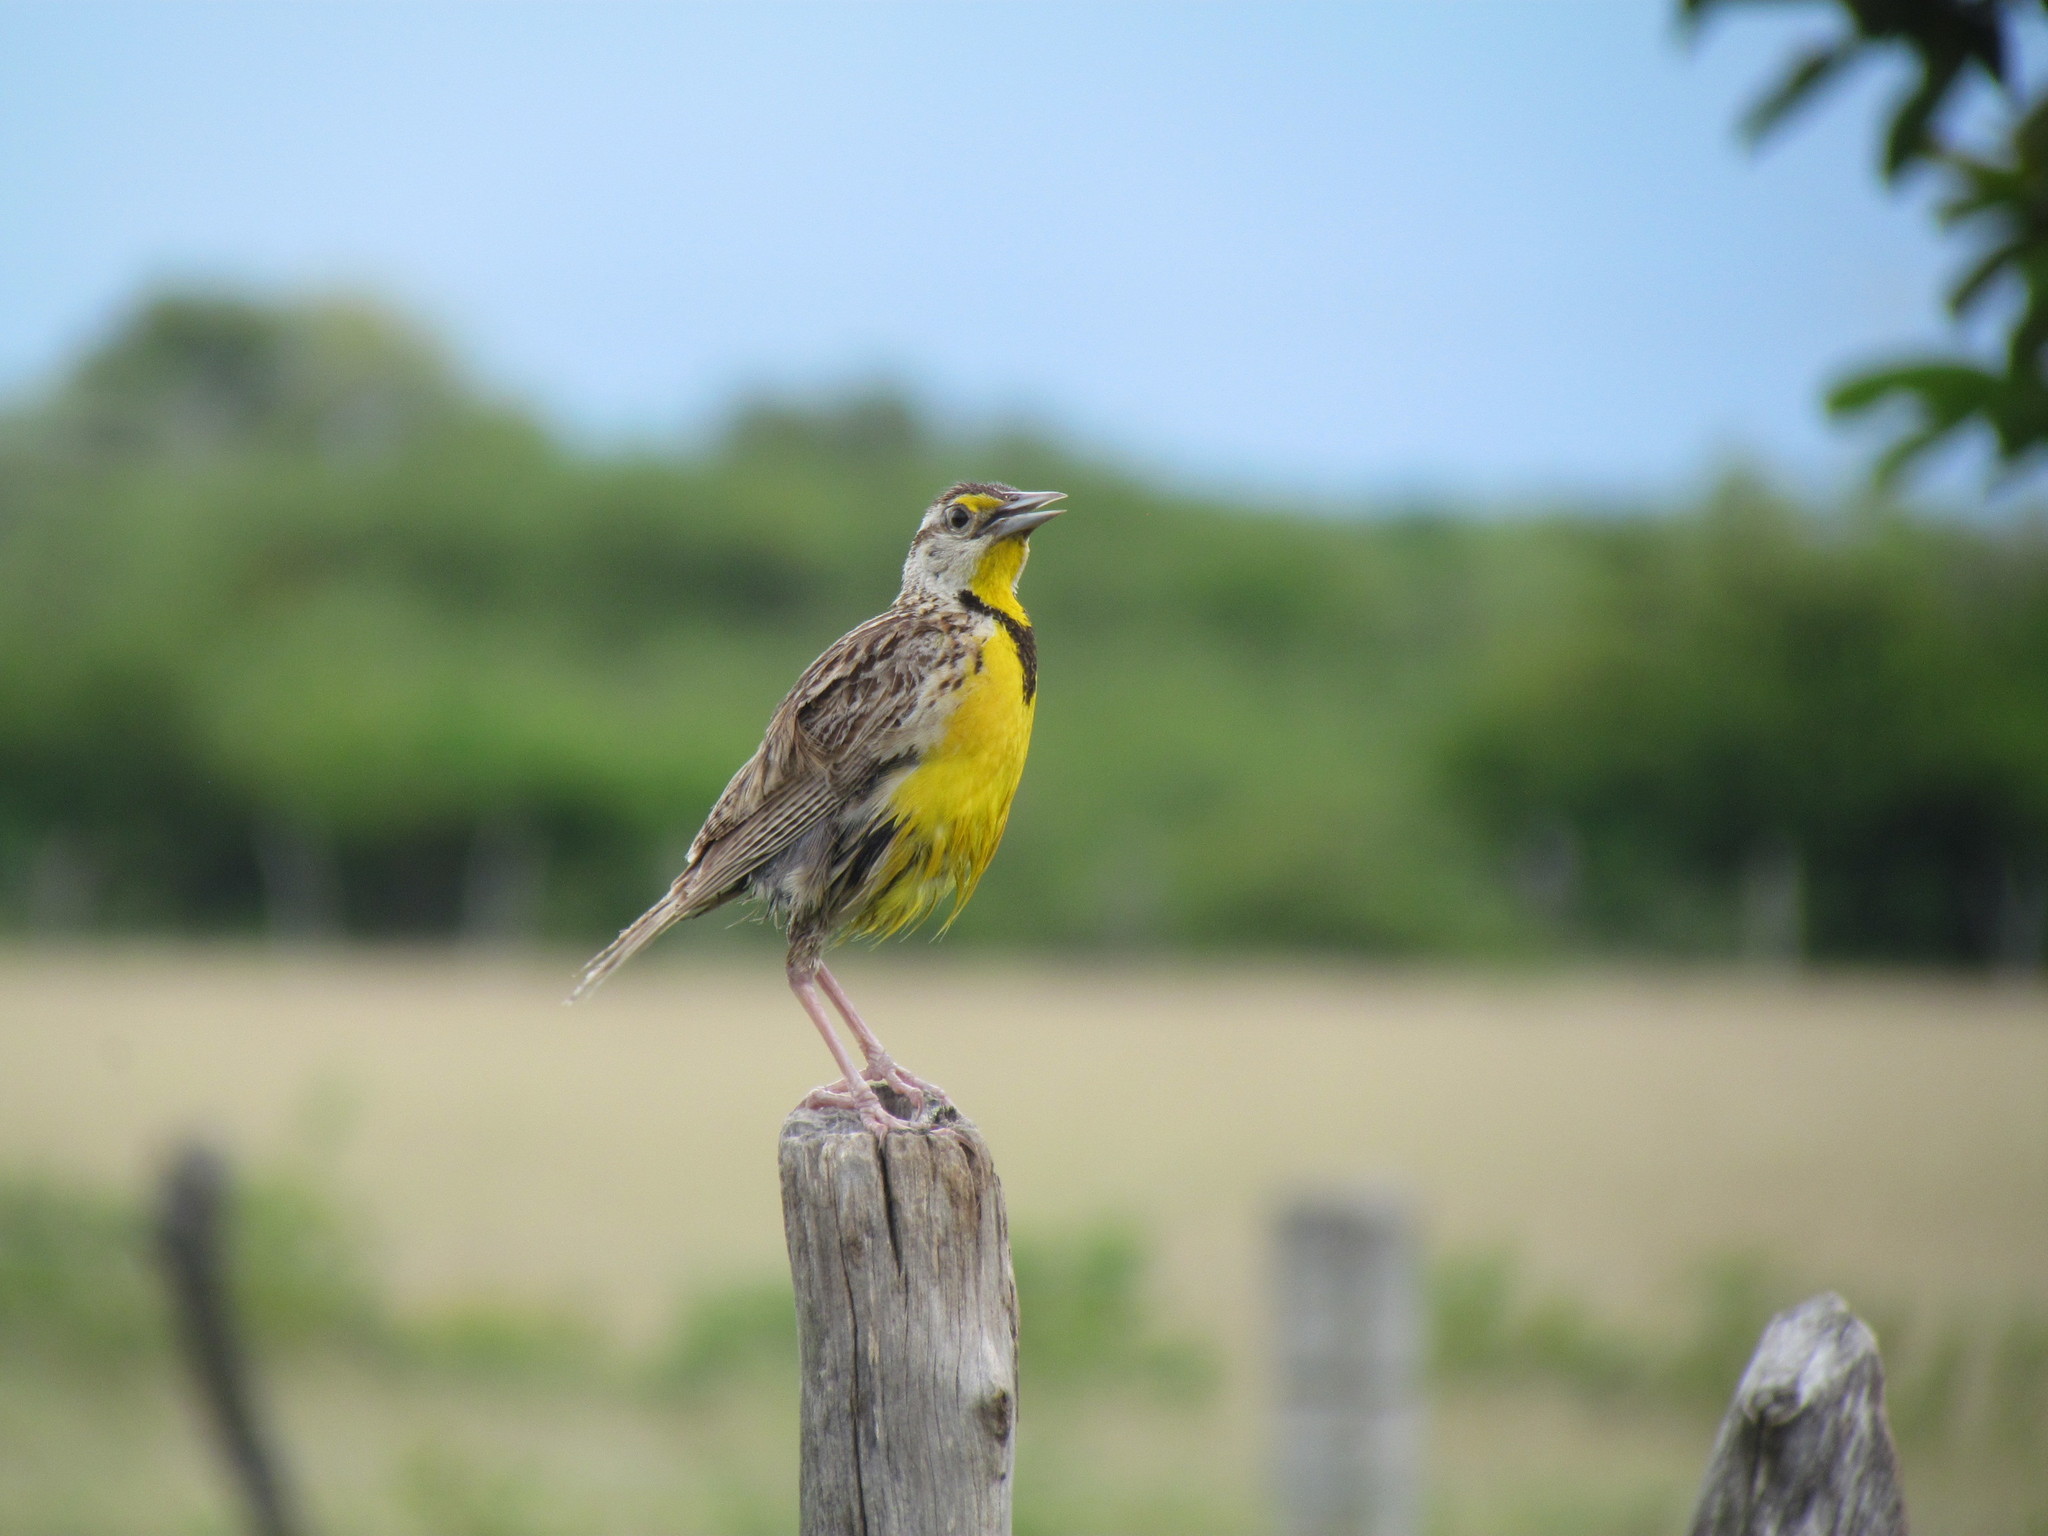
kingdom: Animalia
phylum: Chordata
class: Aves
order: Passeriformes
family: Icteridae
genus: Sturnella
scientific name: Sturnella magna
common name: Eastern meadowlark
